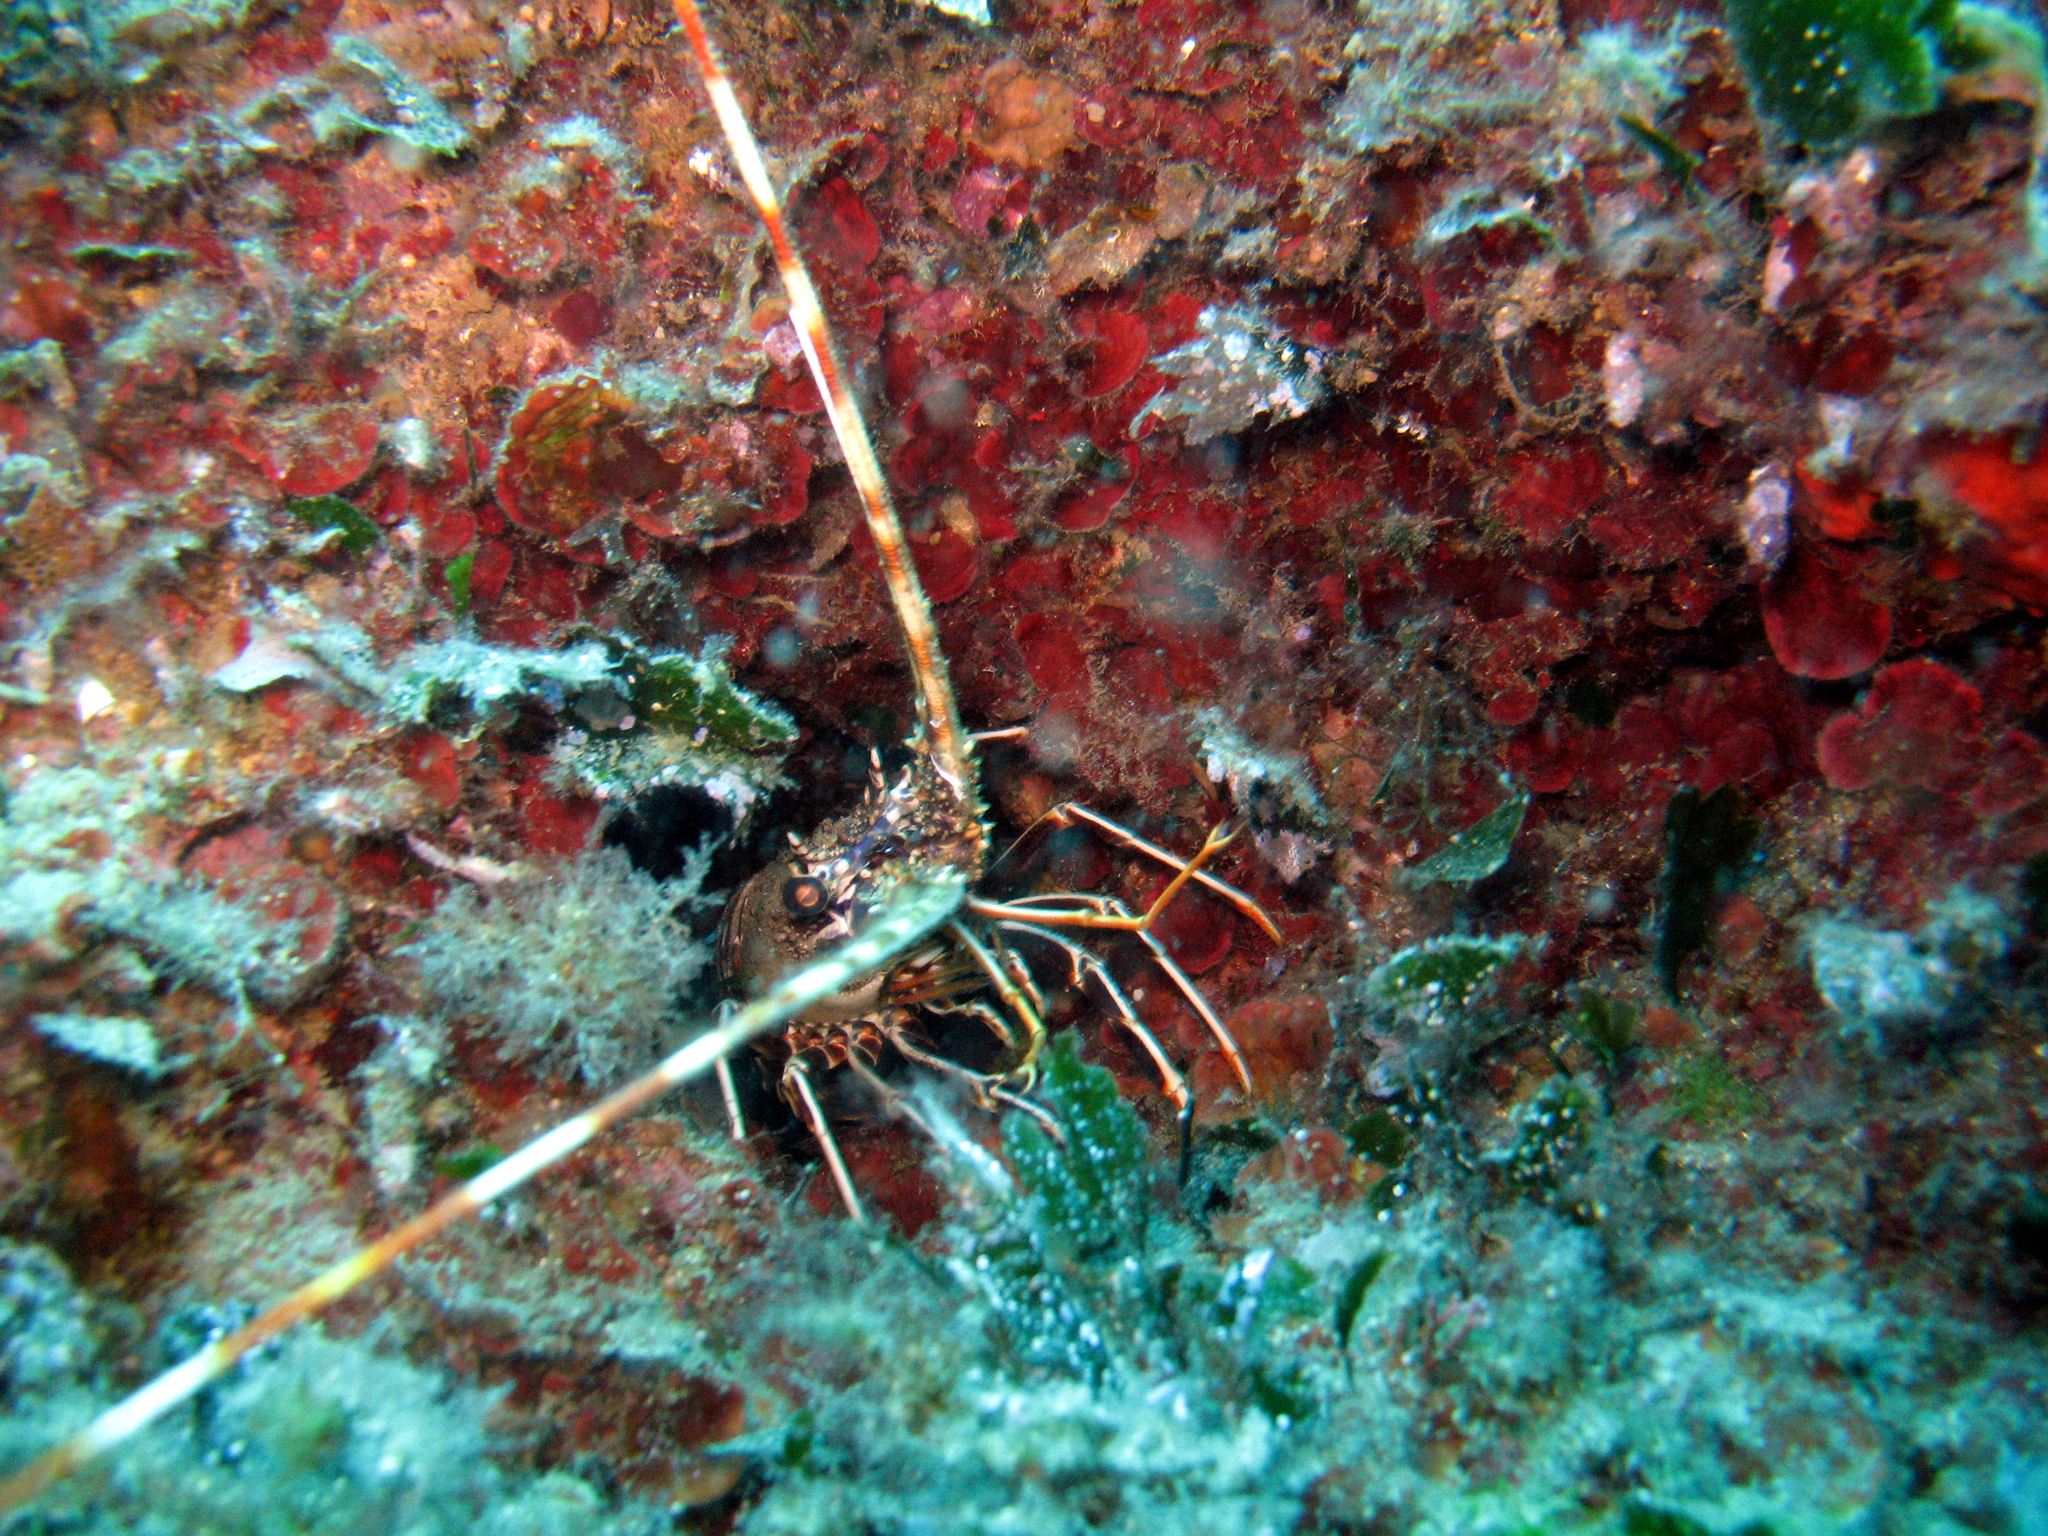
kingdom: Animalia
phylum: Arthropoda
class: Malacostraca
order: Decapoda
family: Palinuridae
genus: Palinurus
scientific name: Palinurus elephas
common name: European spiny lobster
